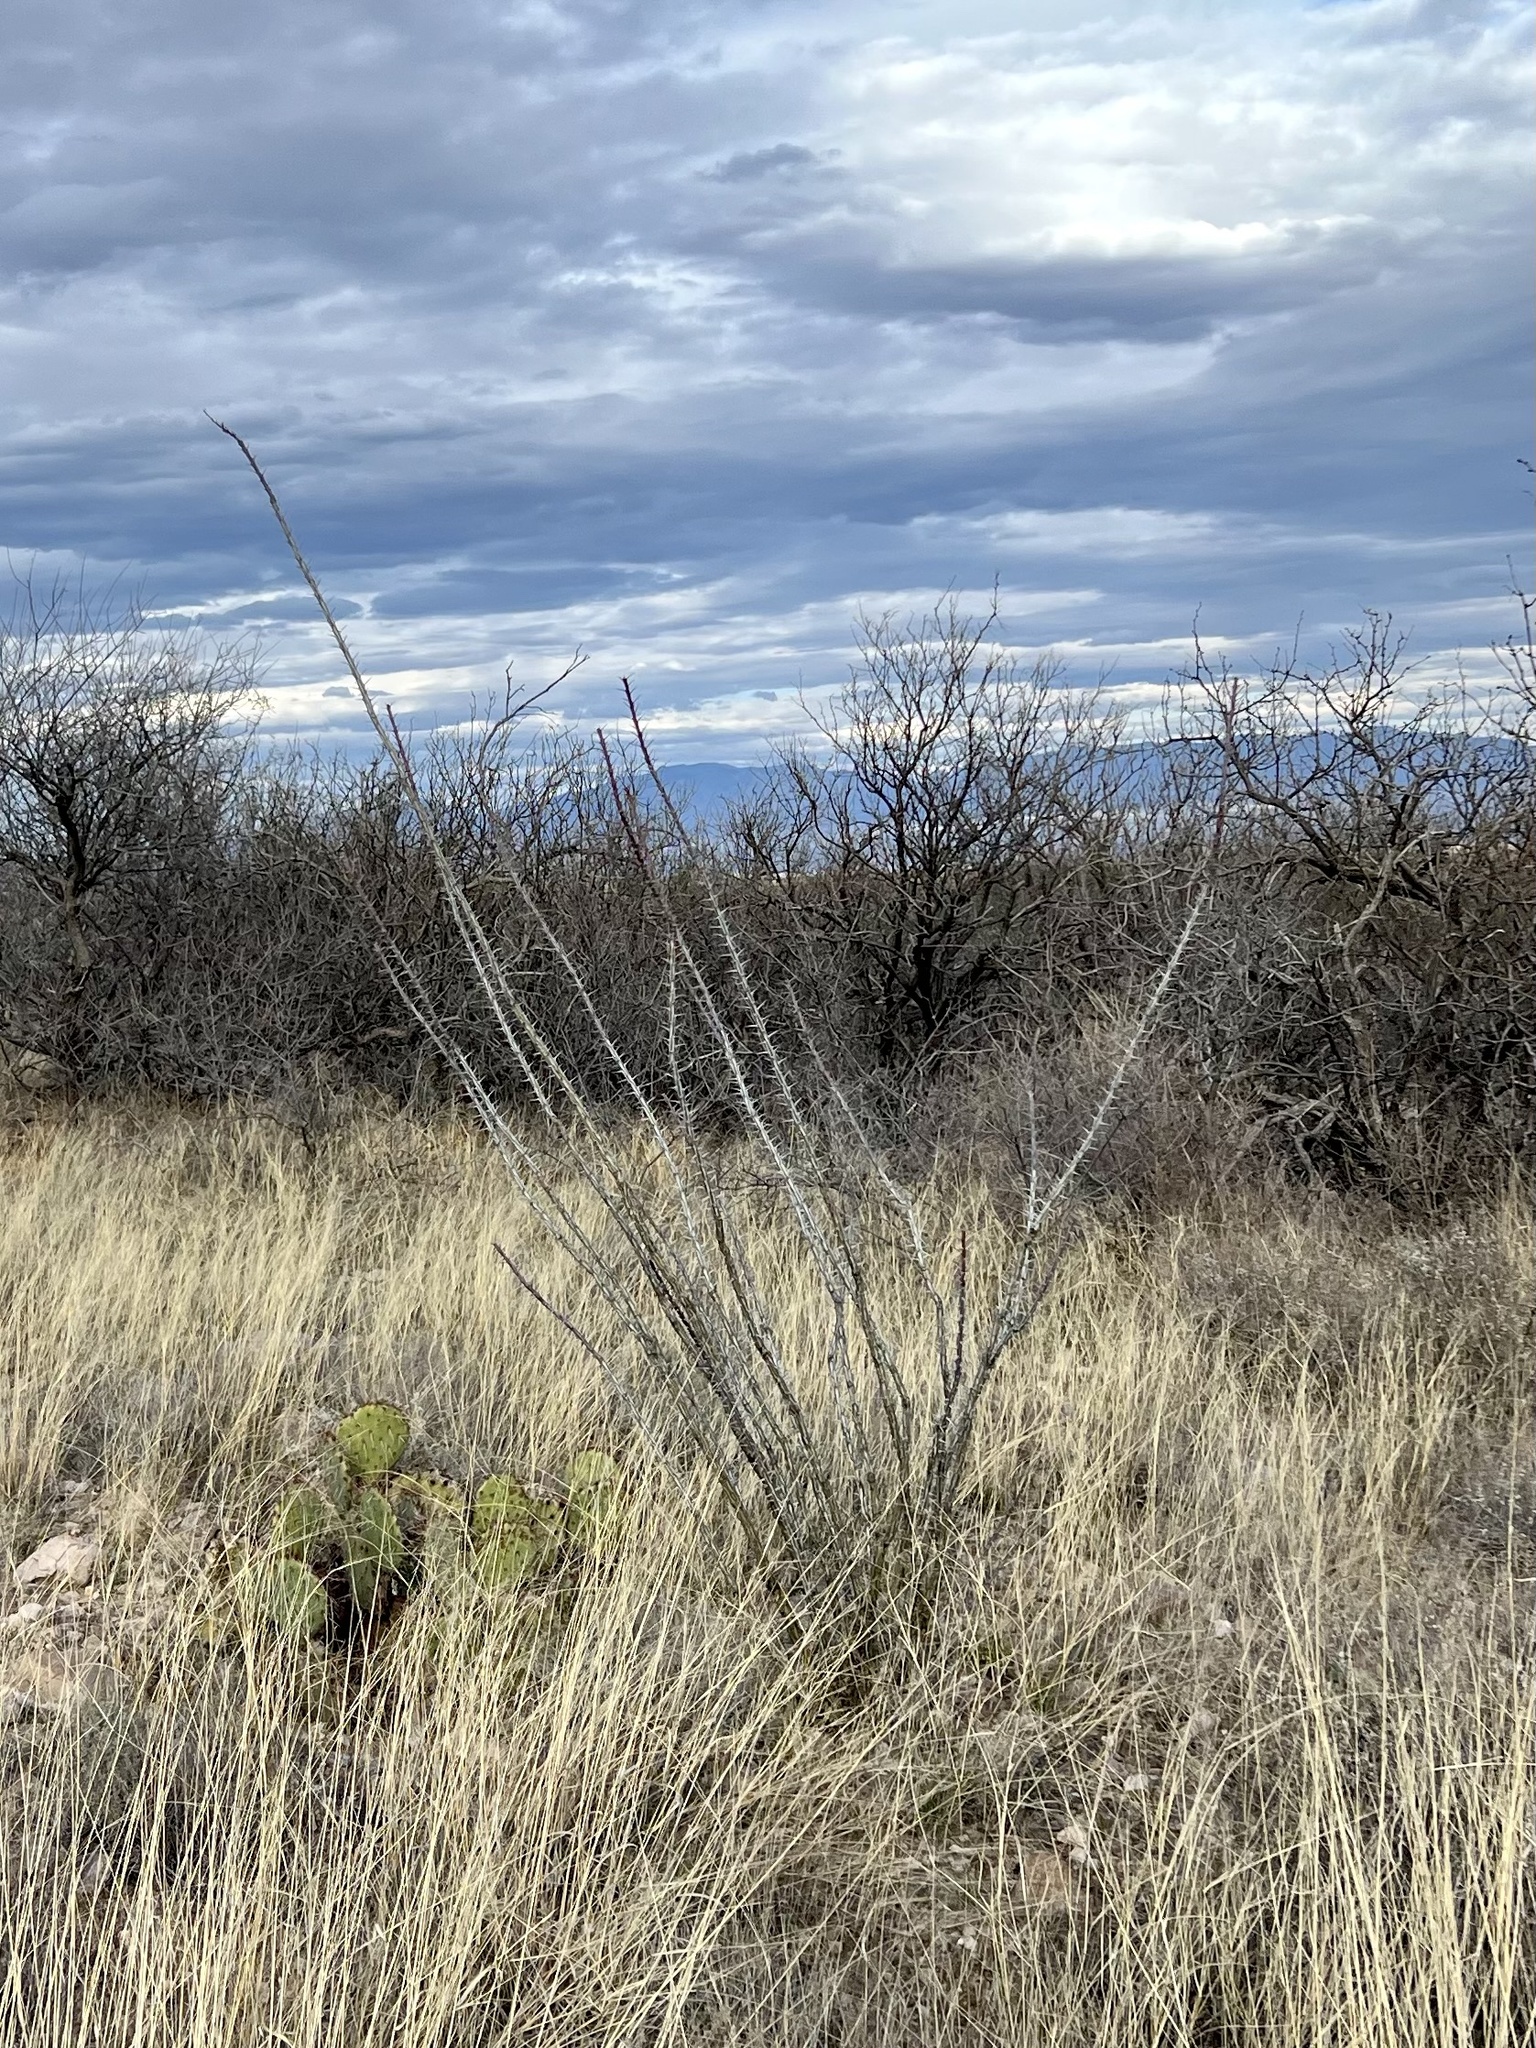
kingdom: Plantae
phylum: Tracheophyta
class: Magnoliopsida
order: Ericales
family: Fouquieriaceae
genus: Fouquieria
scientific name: Fouquieria splendens
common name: Vine-cactus
